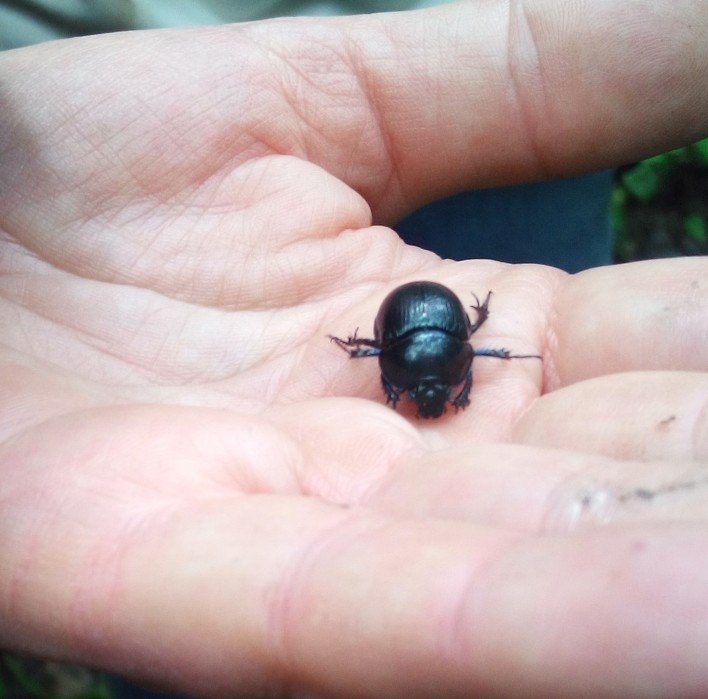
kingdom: Animalia
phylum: Arthropoda
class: Insecta
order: Coleoptera
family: Geotrupidae
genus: Anoplotrupes
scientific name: Anoplotrupes stercorosus
